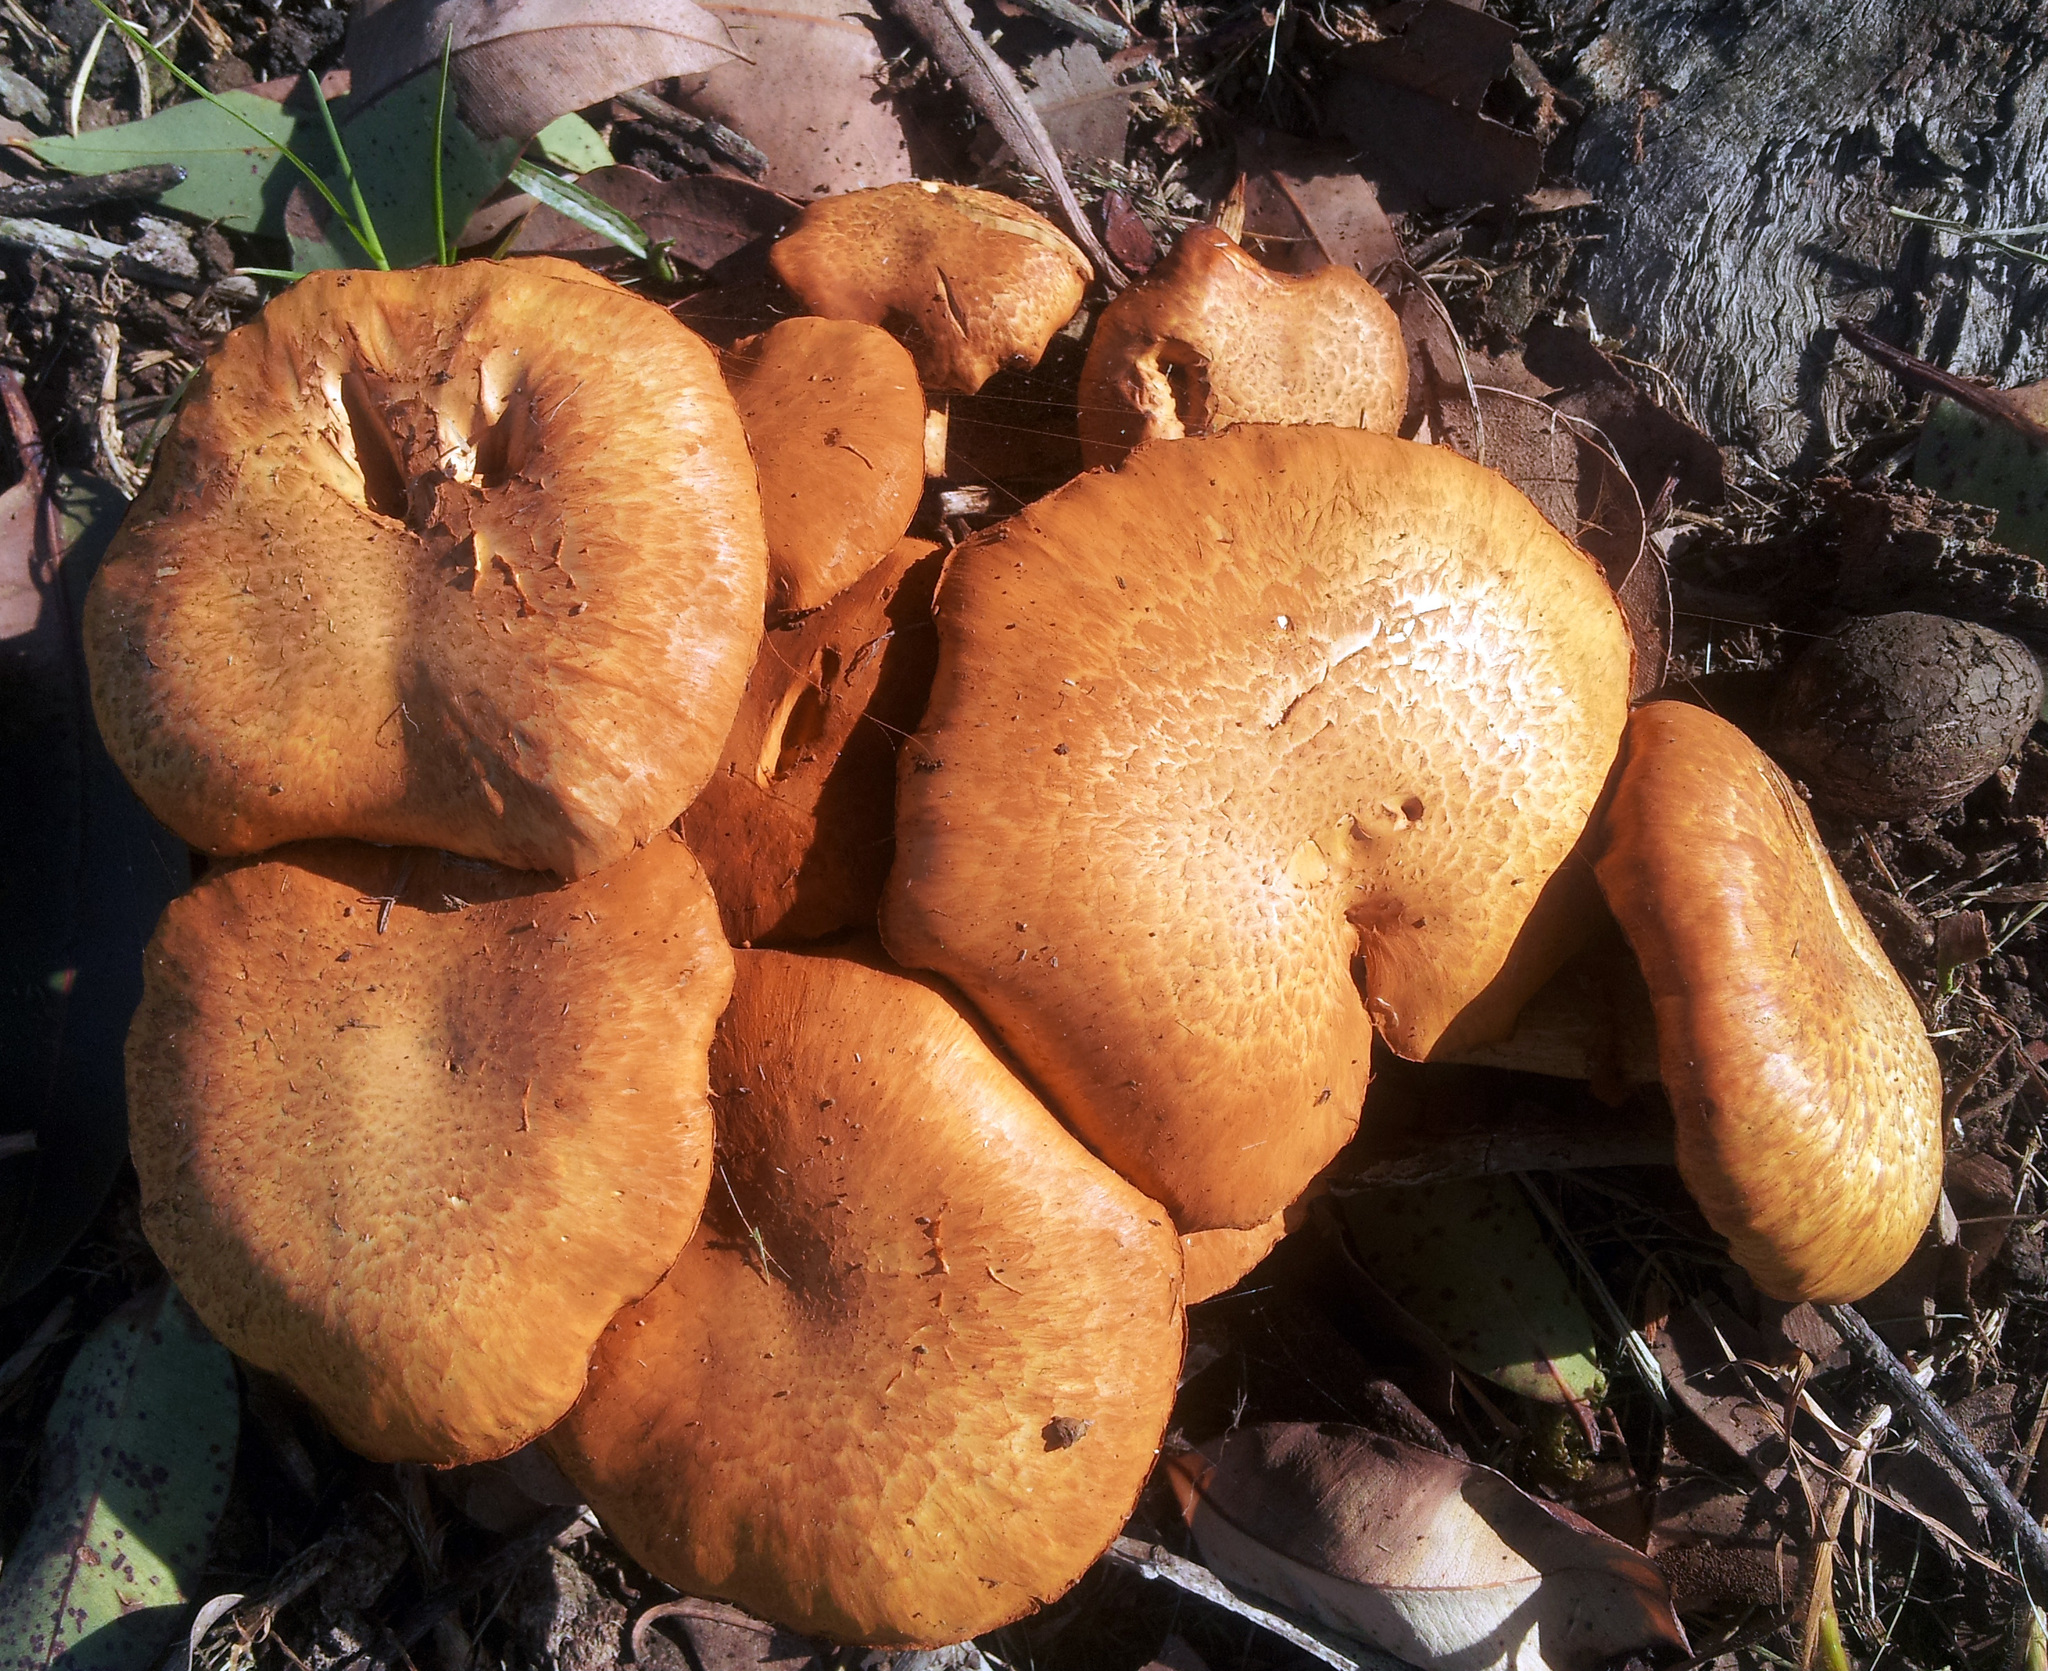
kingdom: Fungi
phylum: Basidiomycota
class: Agaricomycetes
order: Agaricales
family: Hymenogastraceae
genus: Gymnopilus
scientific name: Gymnopilus junonius
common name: Spectacular rustgill
